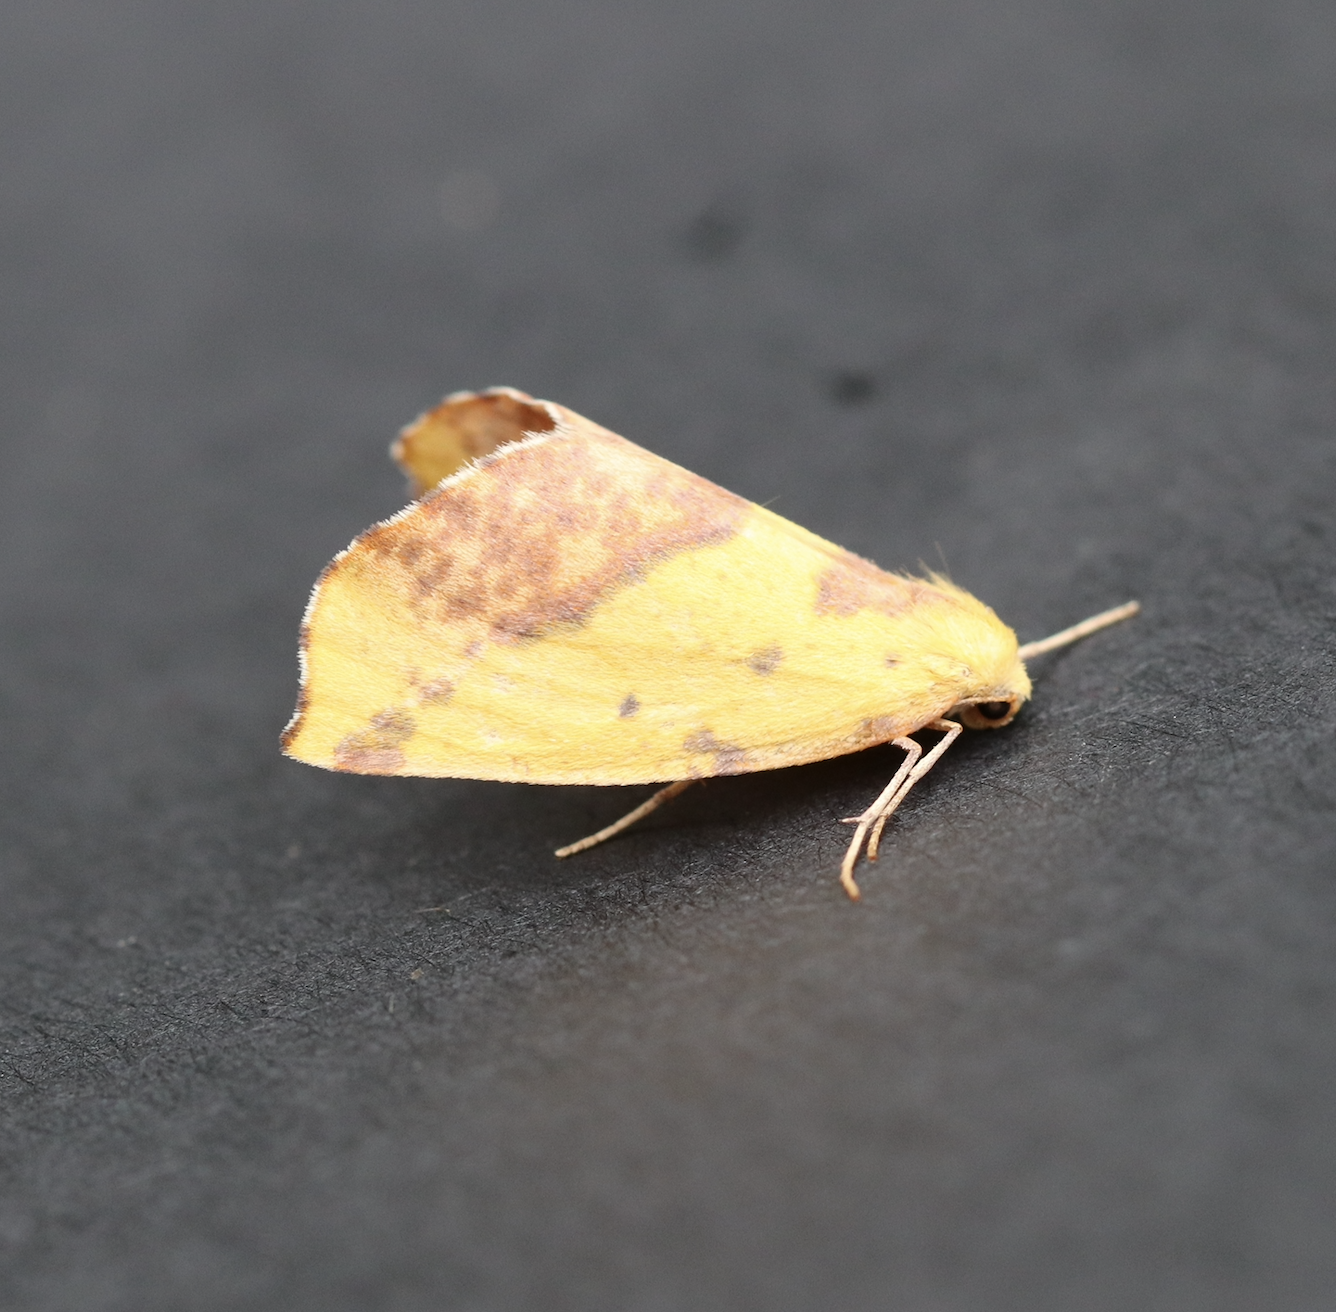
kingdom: Animalia
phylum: Arthropoda
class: Insecta
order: Lepidoptera
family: Geometridae
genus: Sicya
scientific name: Sicya macularia
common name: Sharp-lined yellow
